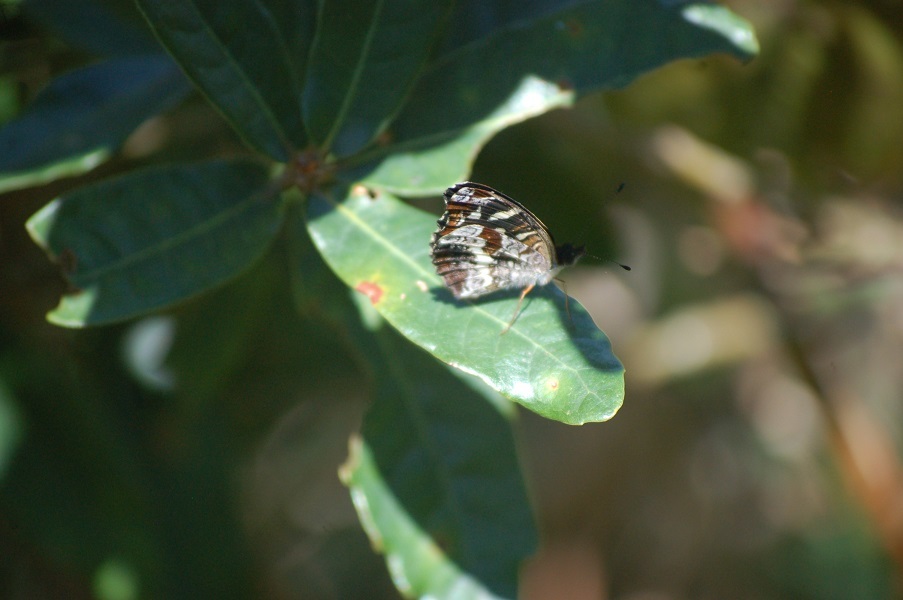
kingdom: Animalia
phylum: Arthropoda
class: Insecta
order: Lepidoptera
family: Nymphalidae
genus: Anthanassa
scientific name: Anthanassa dracaena
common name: Notched crescent
